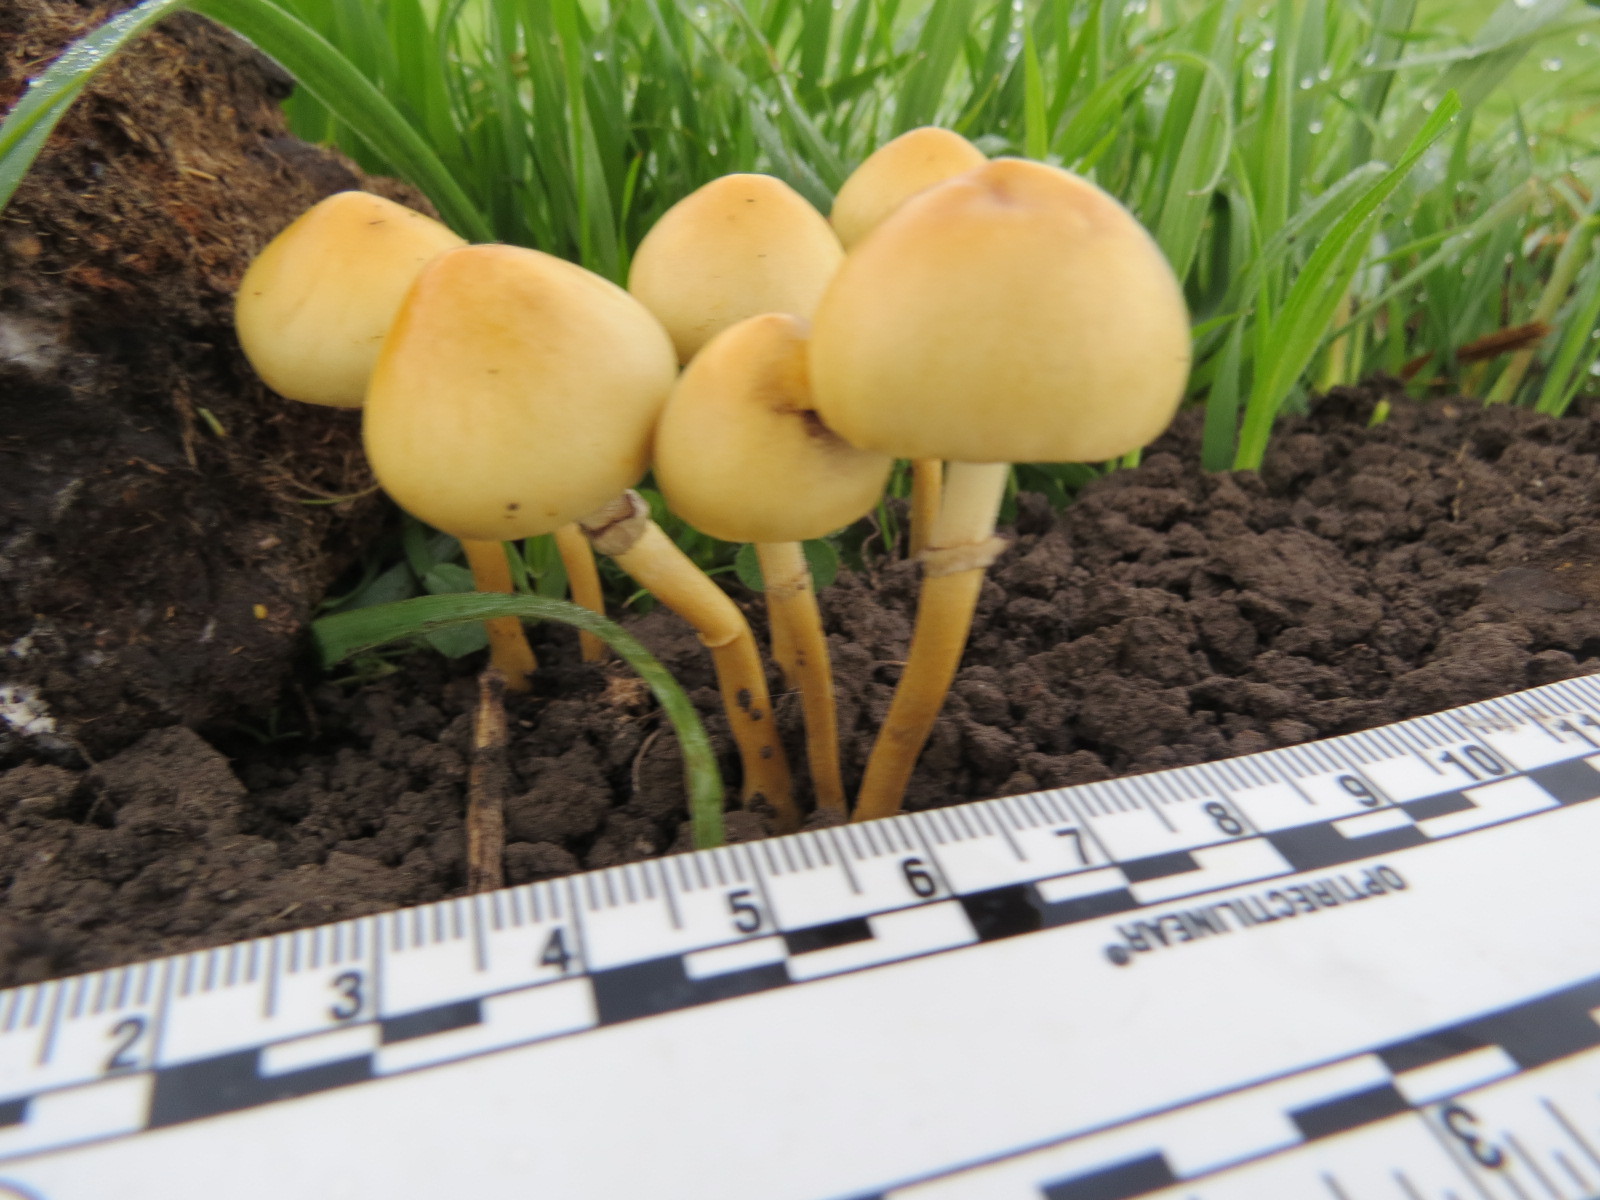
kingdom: Fungi
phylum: Basidiomycota
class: Agaricomycetes
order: Agaricales
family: Strophariaceae
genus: Protostropharia
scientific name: Protostropharia dorsipora
